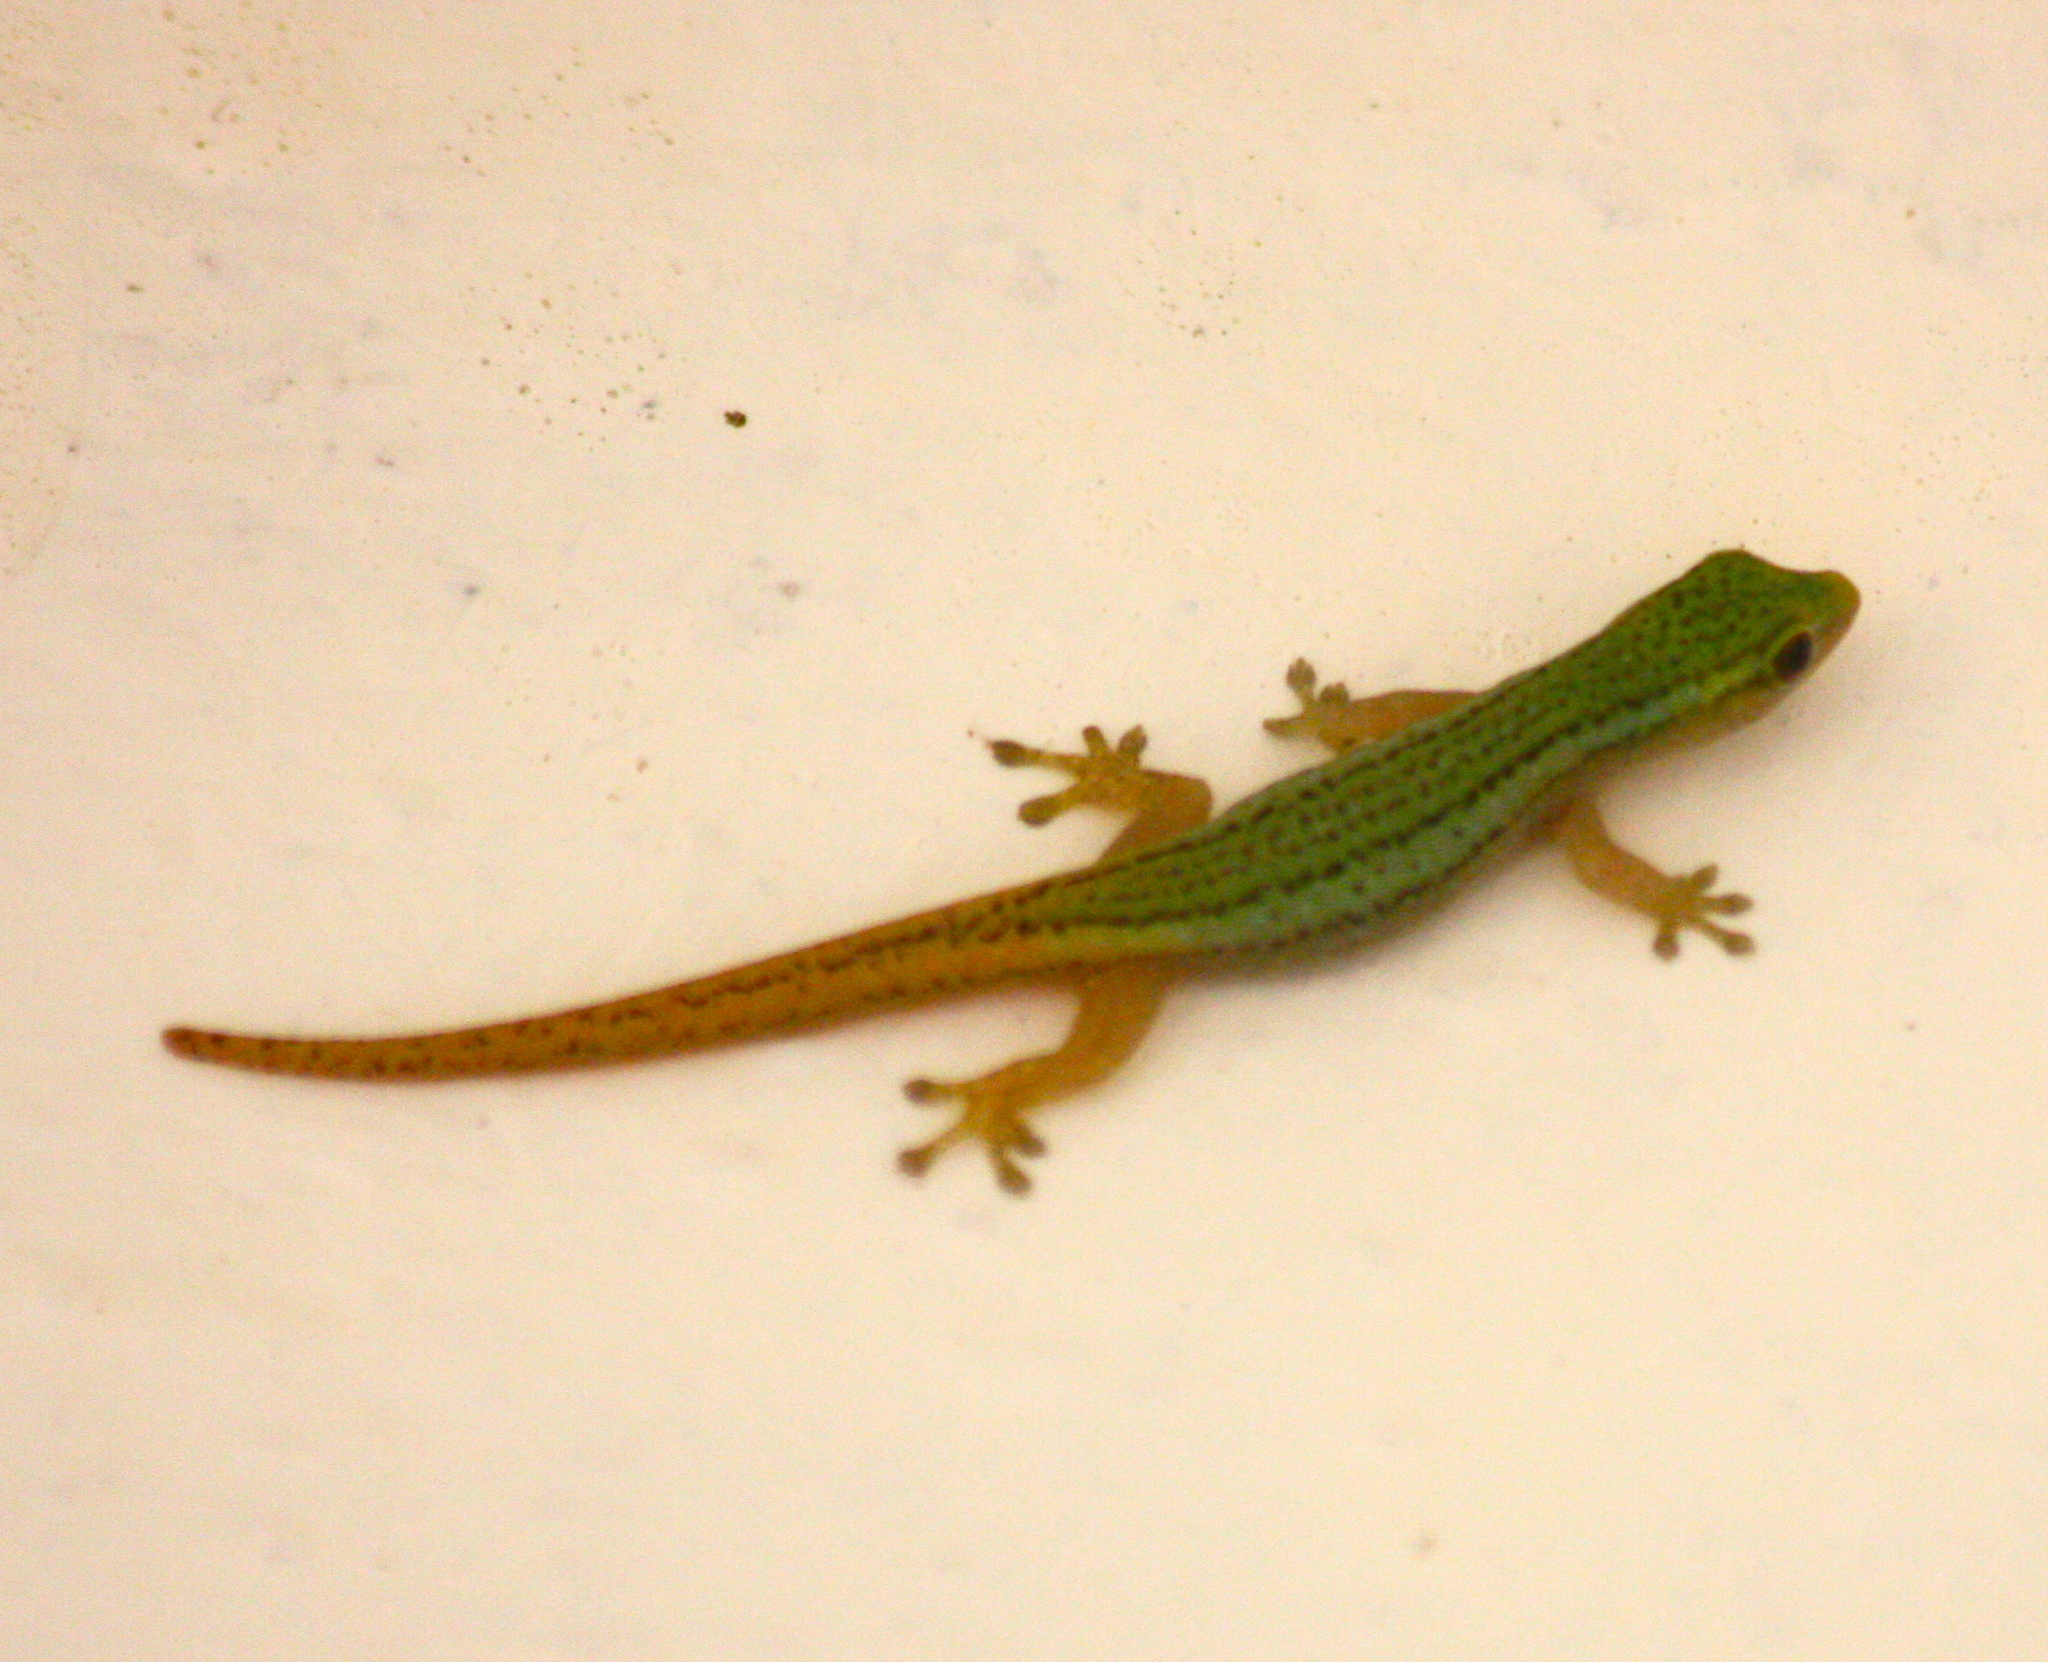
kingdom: Animalia
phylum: Chordata
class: Squamata
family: Gekkonidae
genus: Lygodactylus
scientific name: Lygodactylus conraui
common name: Cameroon dwarf gecko
